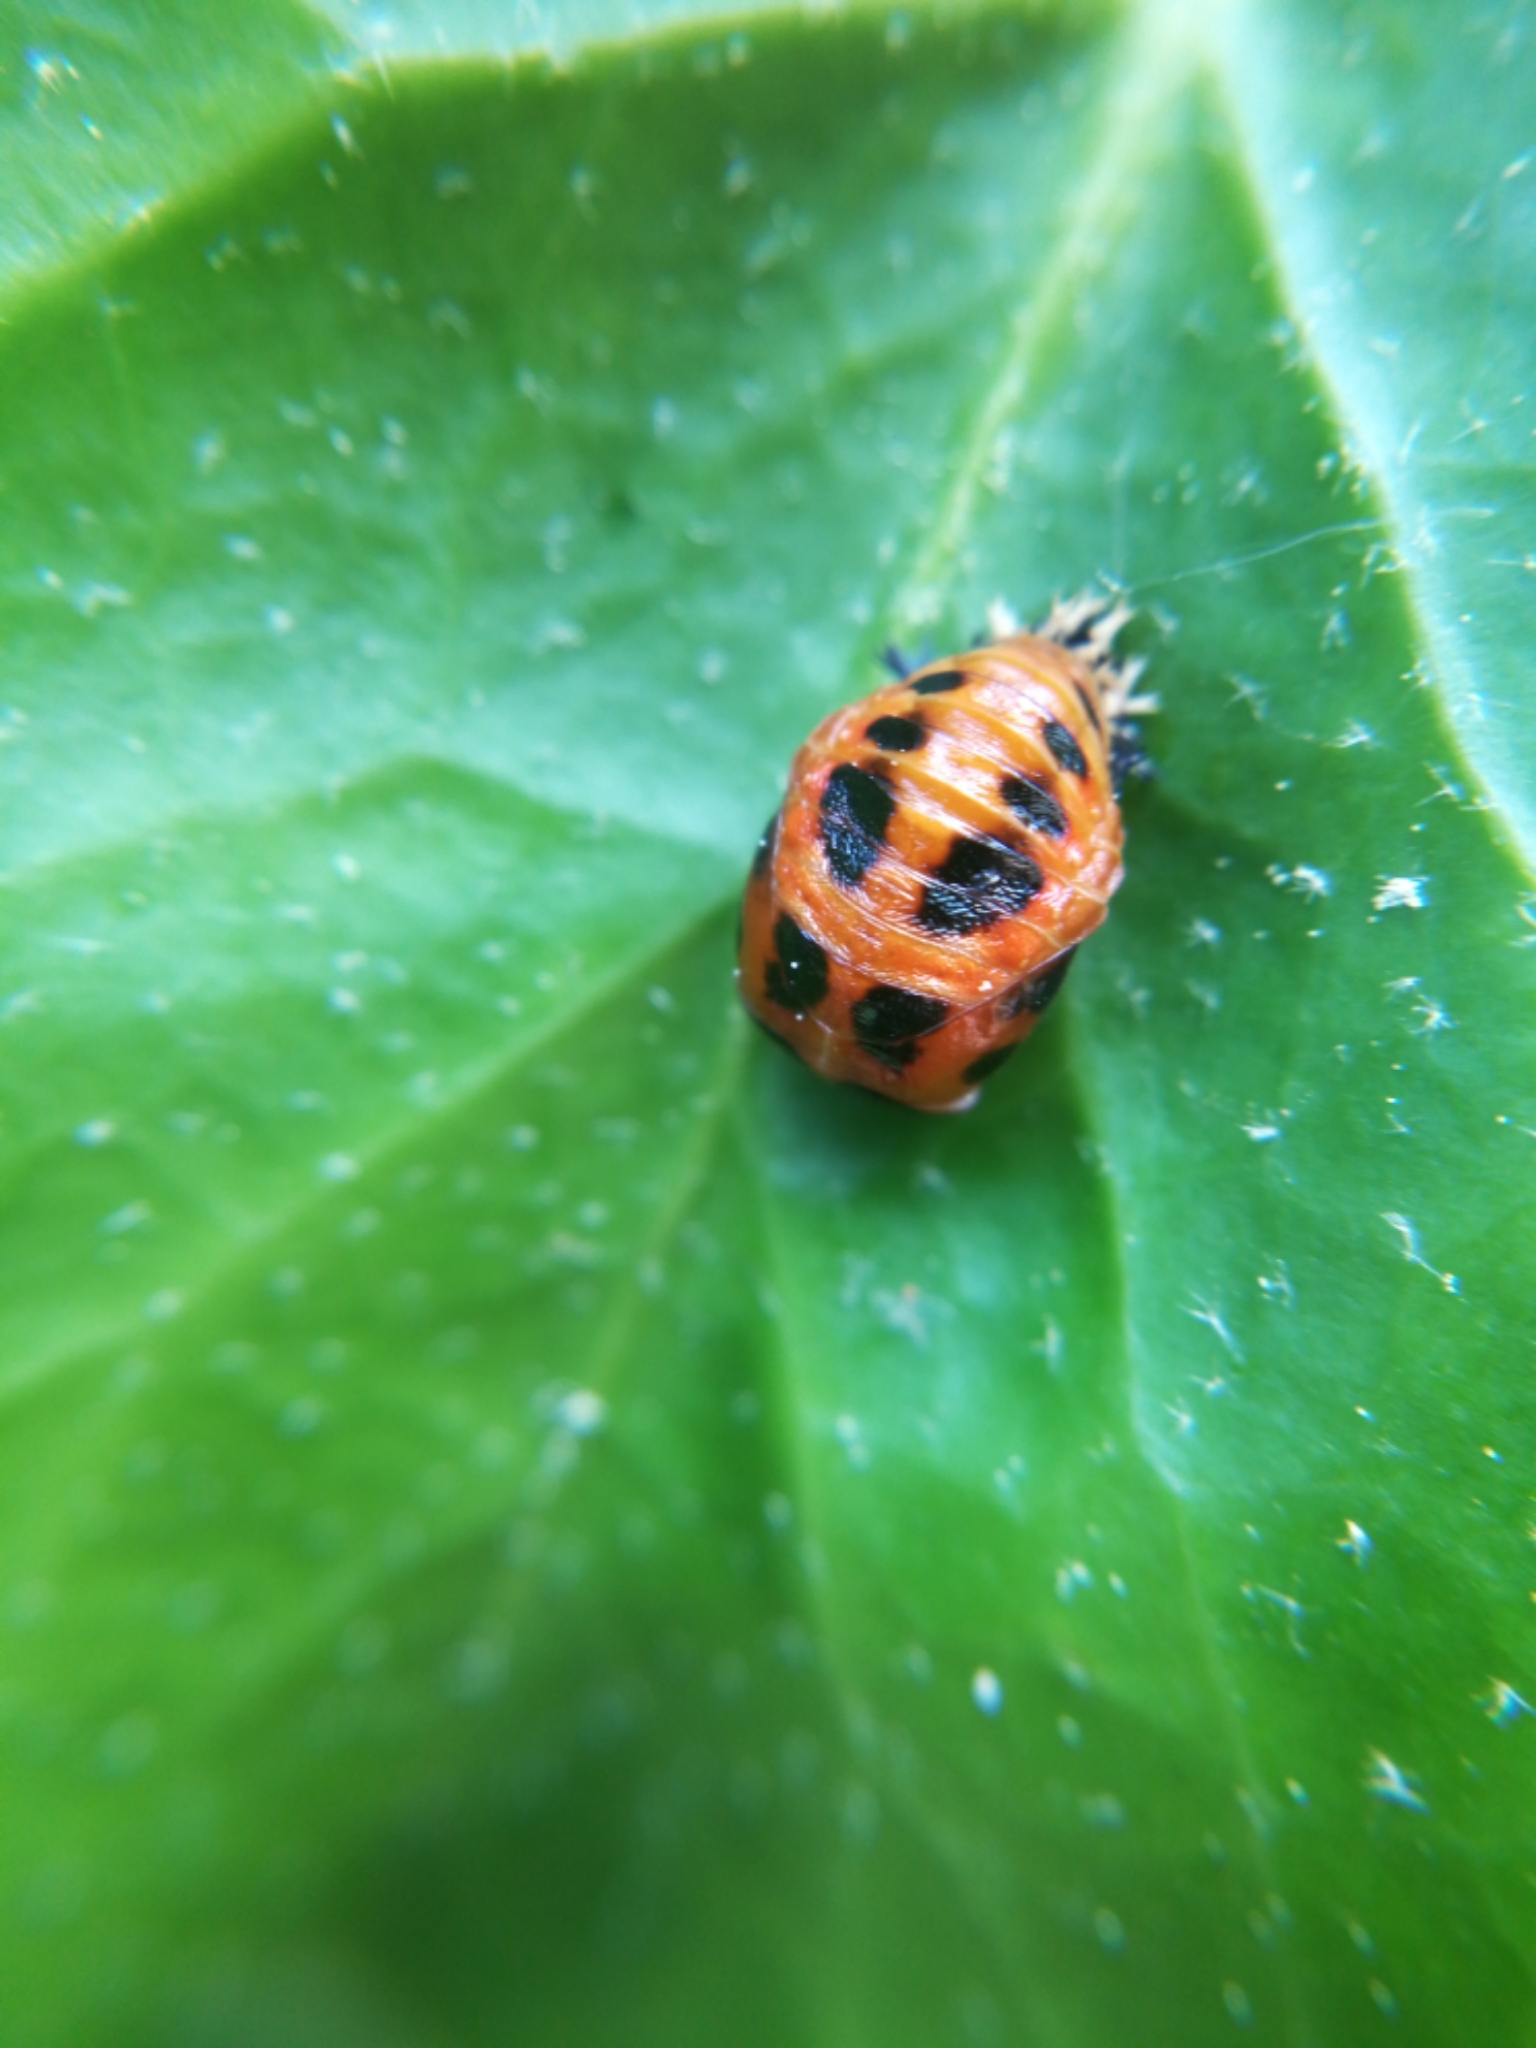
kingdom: Animalia
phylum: Arthropoda
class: Insecta
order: Coleoptera
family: Coccinellidae
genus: Harmonia
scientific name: Harmonia axyridis
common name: Harlequin ladybird
